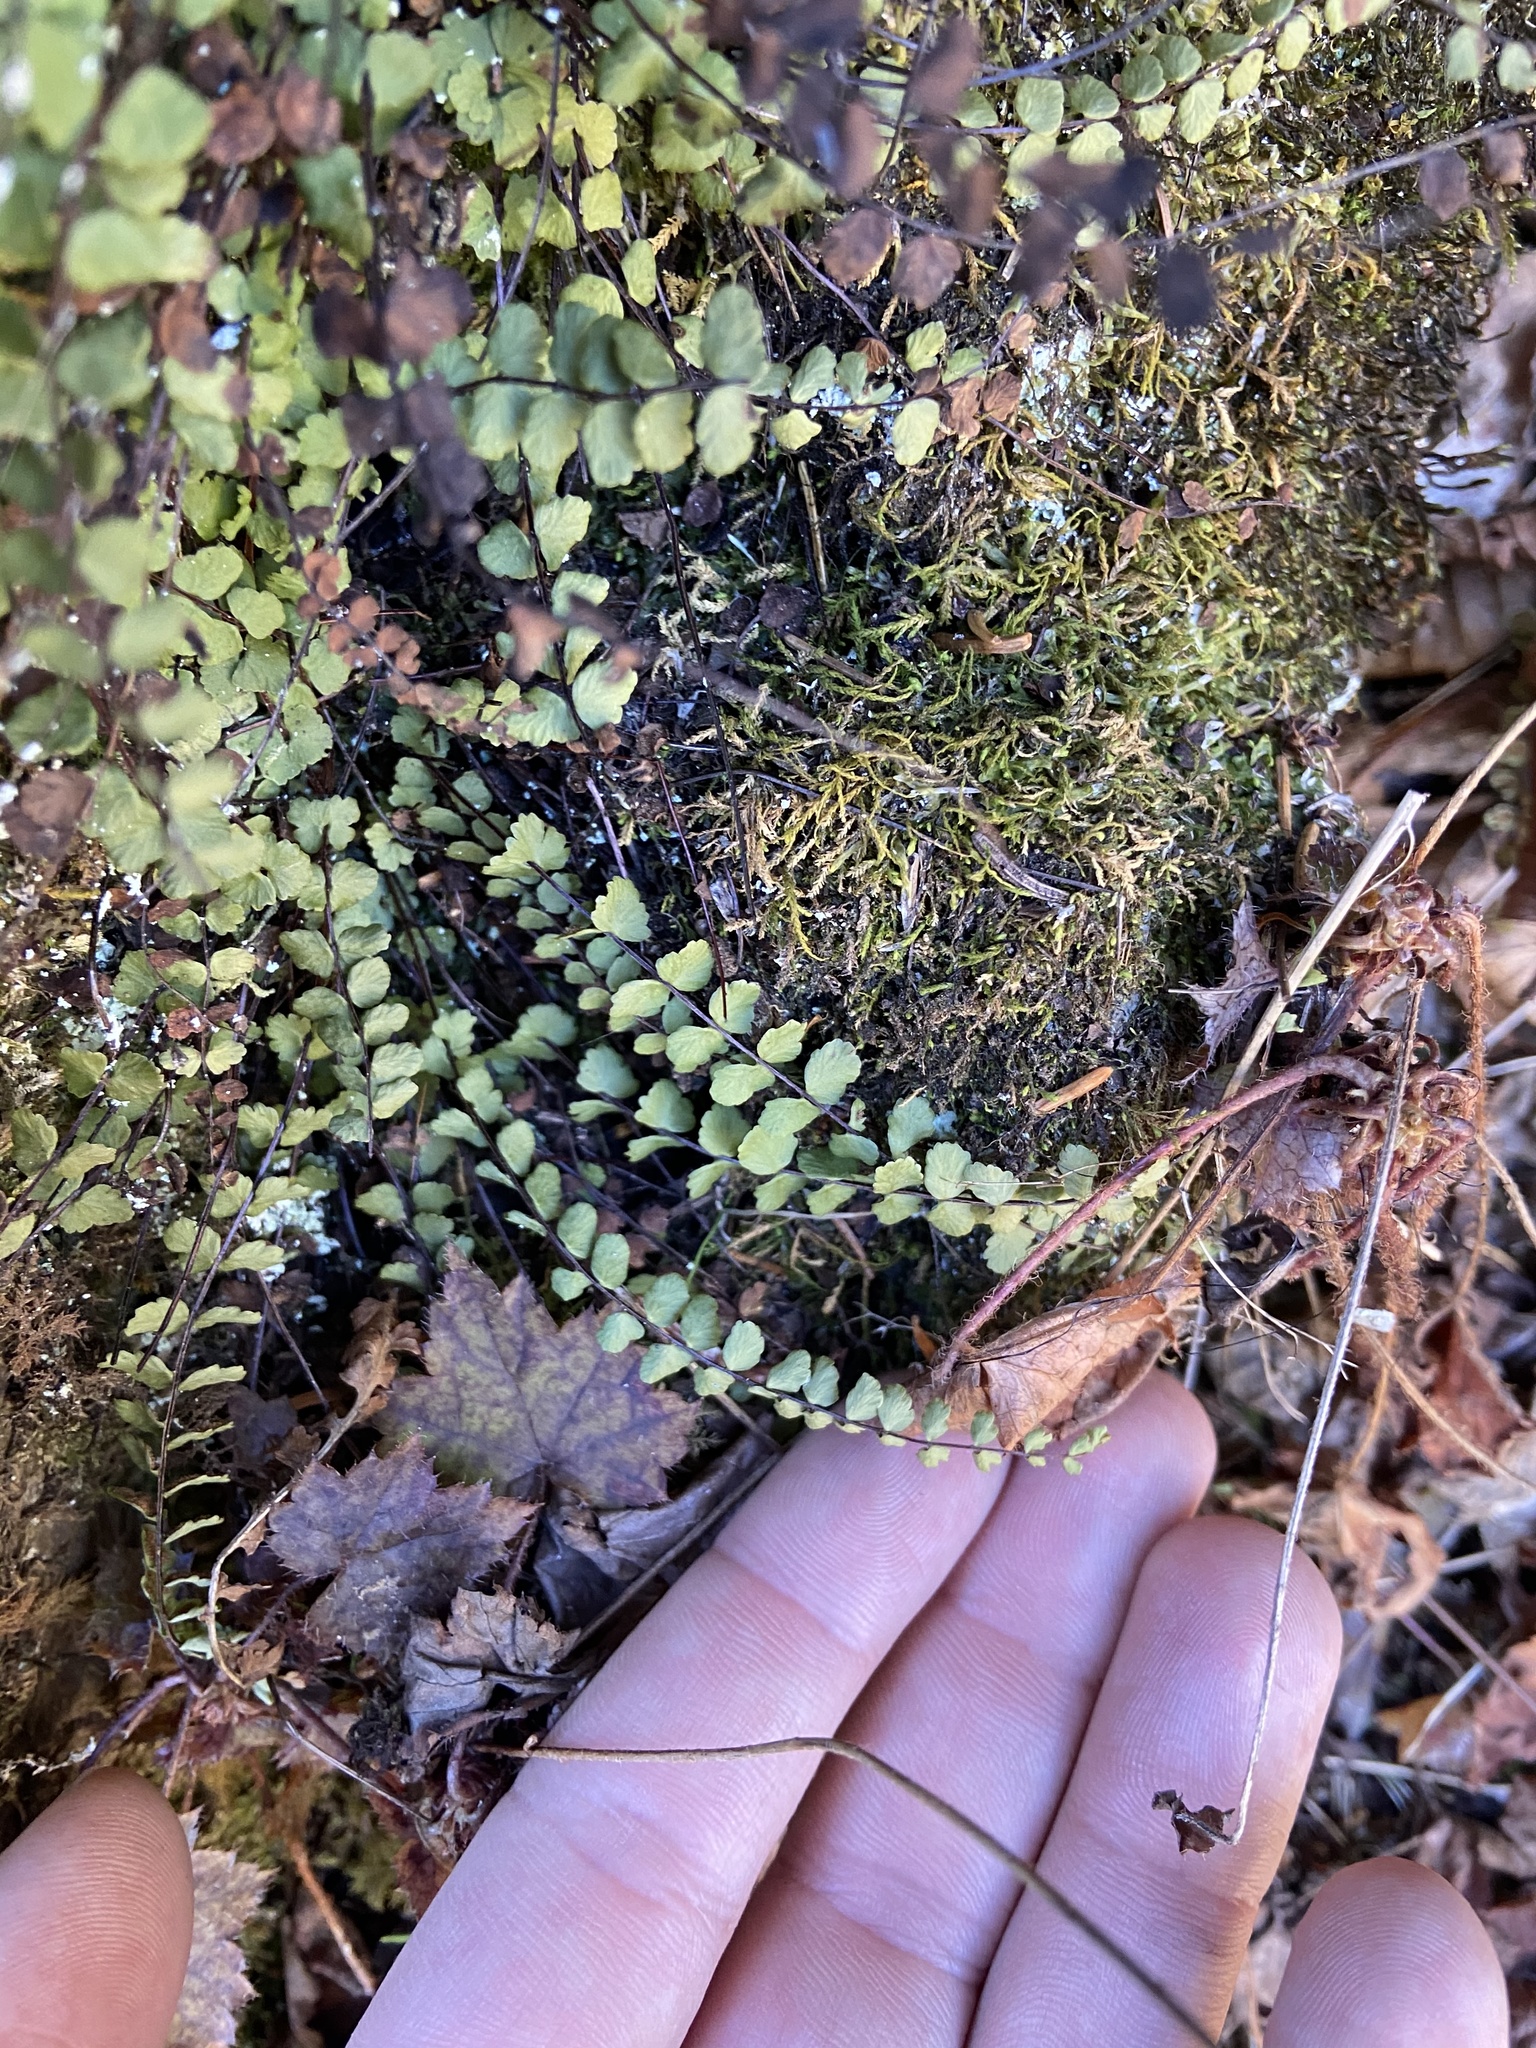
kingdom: Plantae
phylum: Tracheophyta
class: Polypodiopsida
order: Polypodiales
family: Aspleniaceae
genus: Asplenium
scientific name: Asplenium trichomanes
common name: Maidenhair spleenwort
